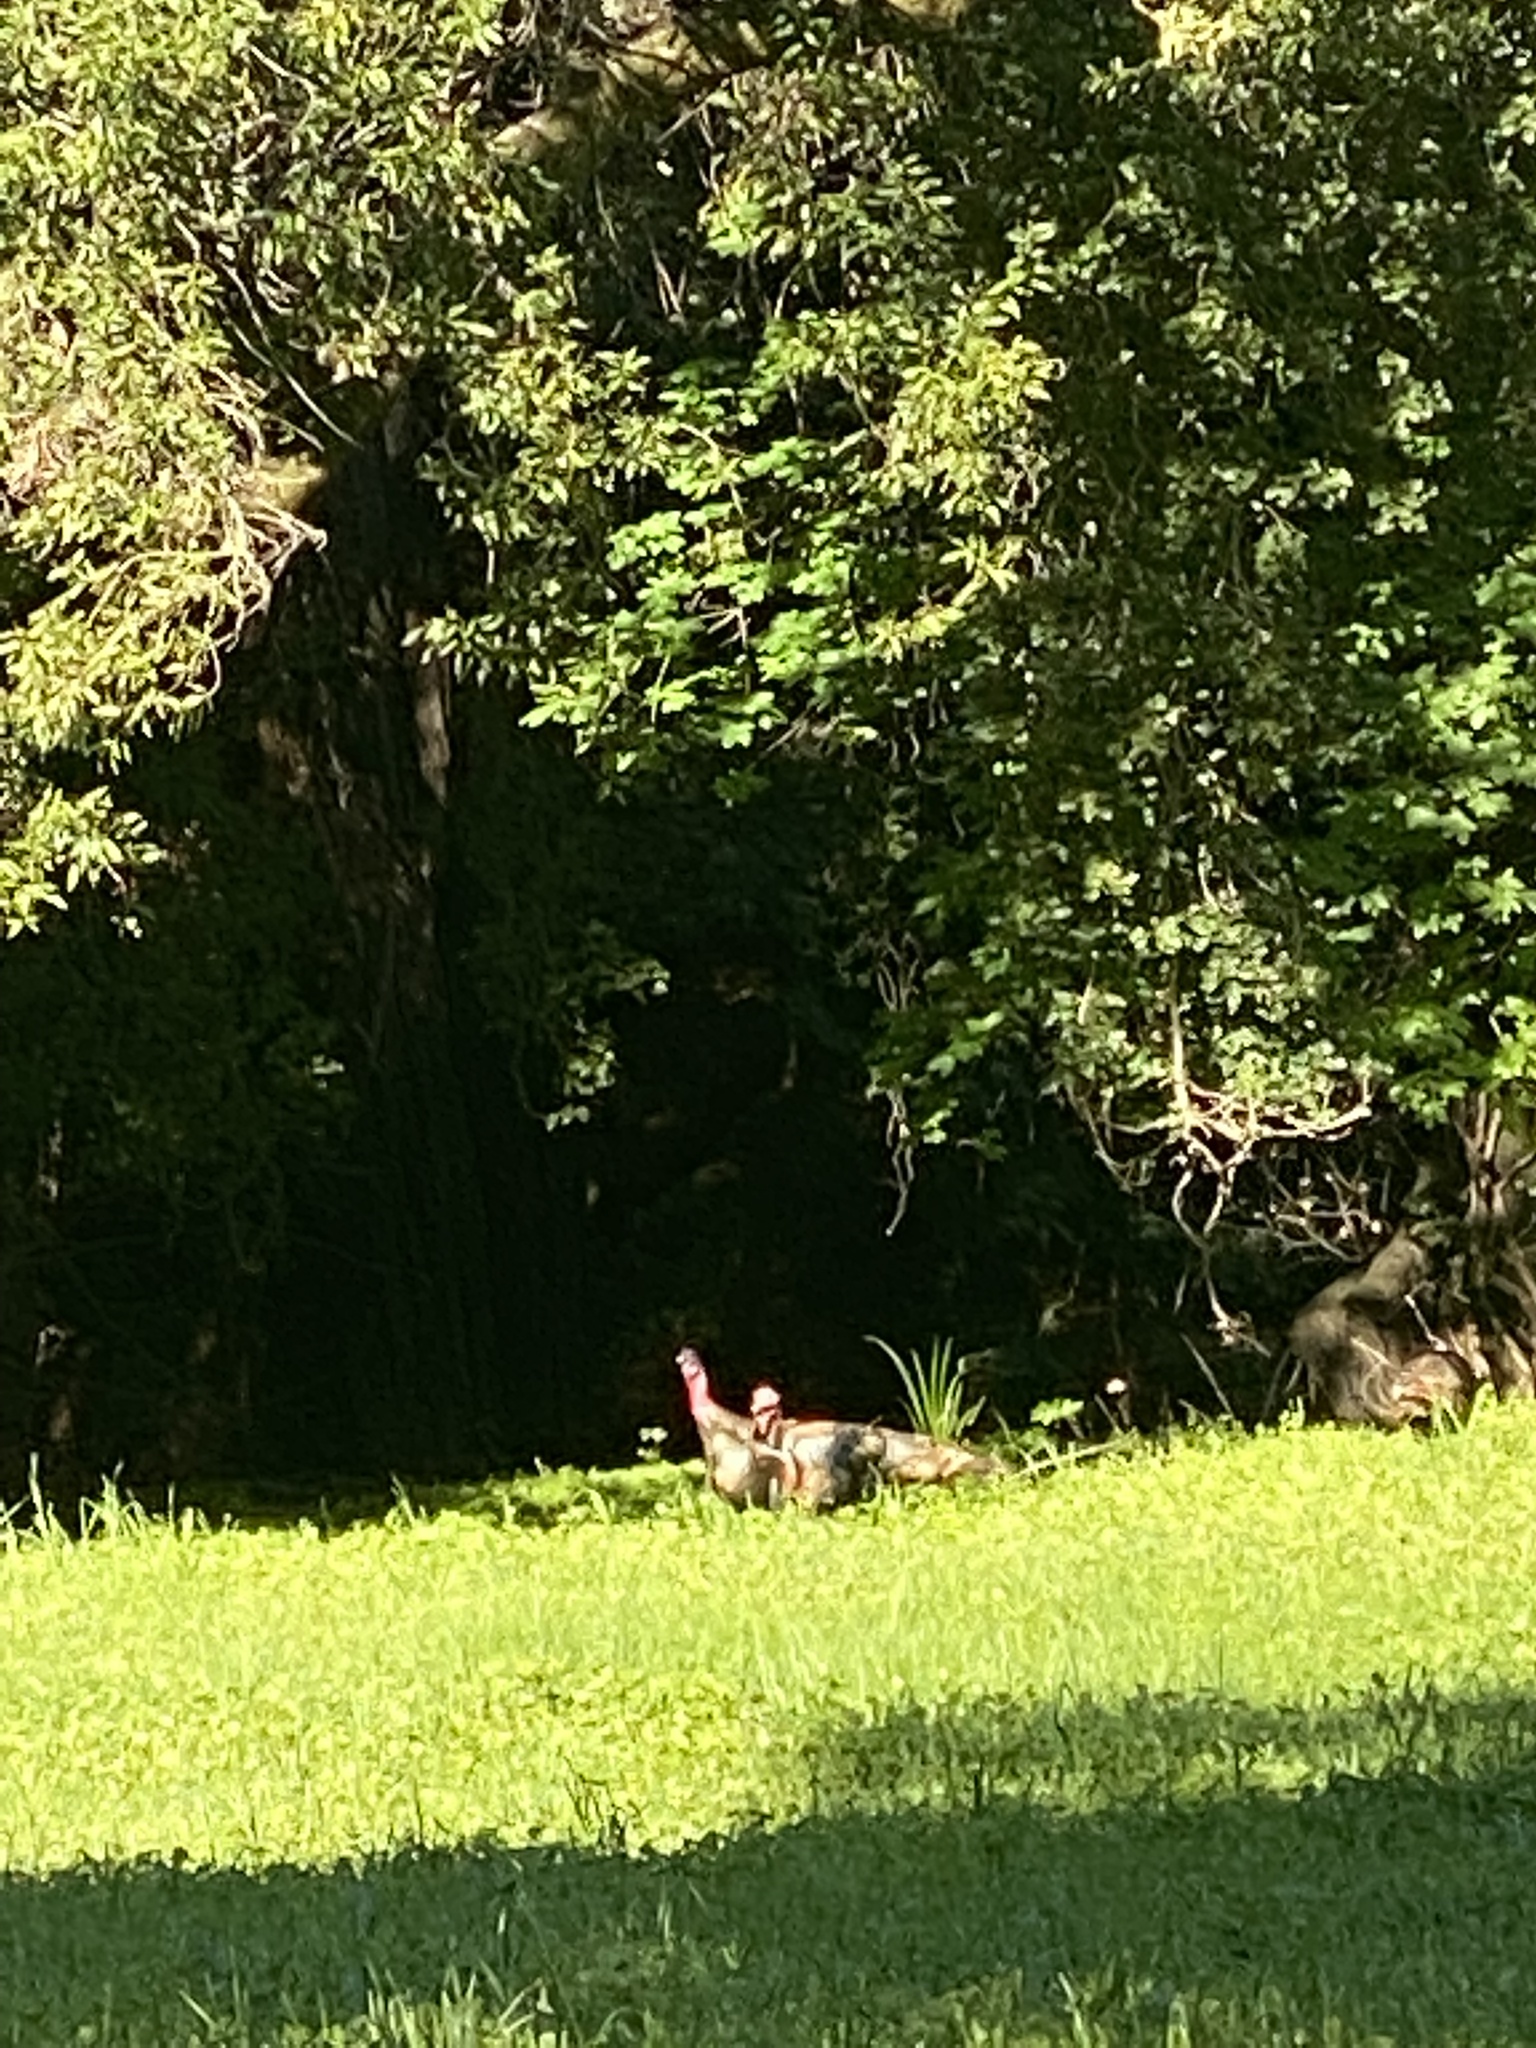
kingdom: Animalia
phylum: Chordata
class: Aves
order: Galliformes
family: Phasianidae
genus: Meleagris
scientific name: Meleagris gallopavo
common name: Wild turkey
